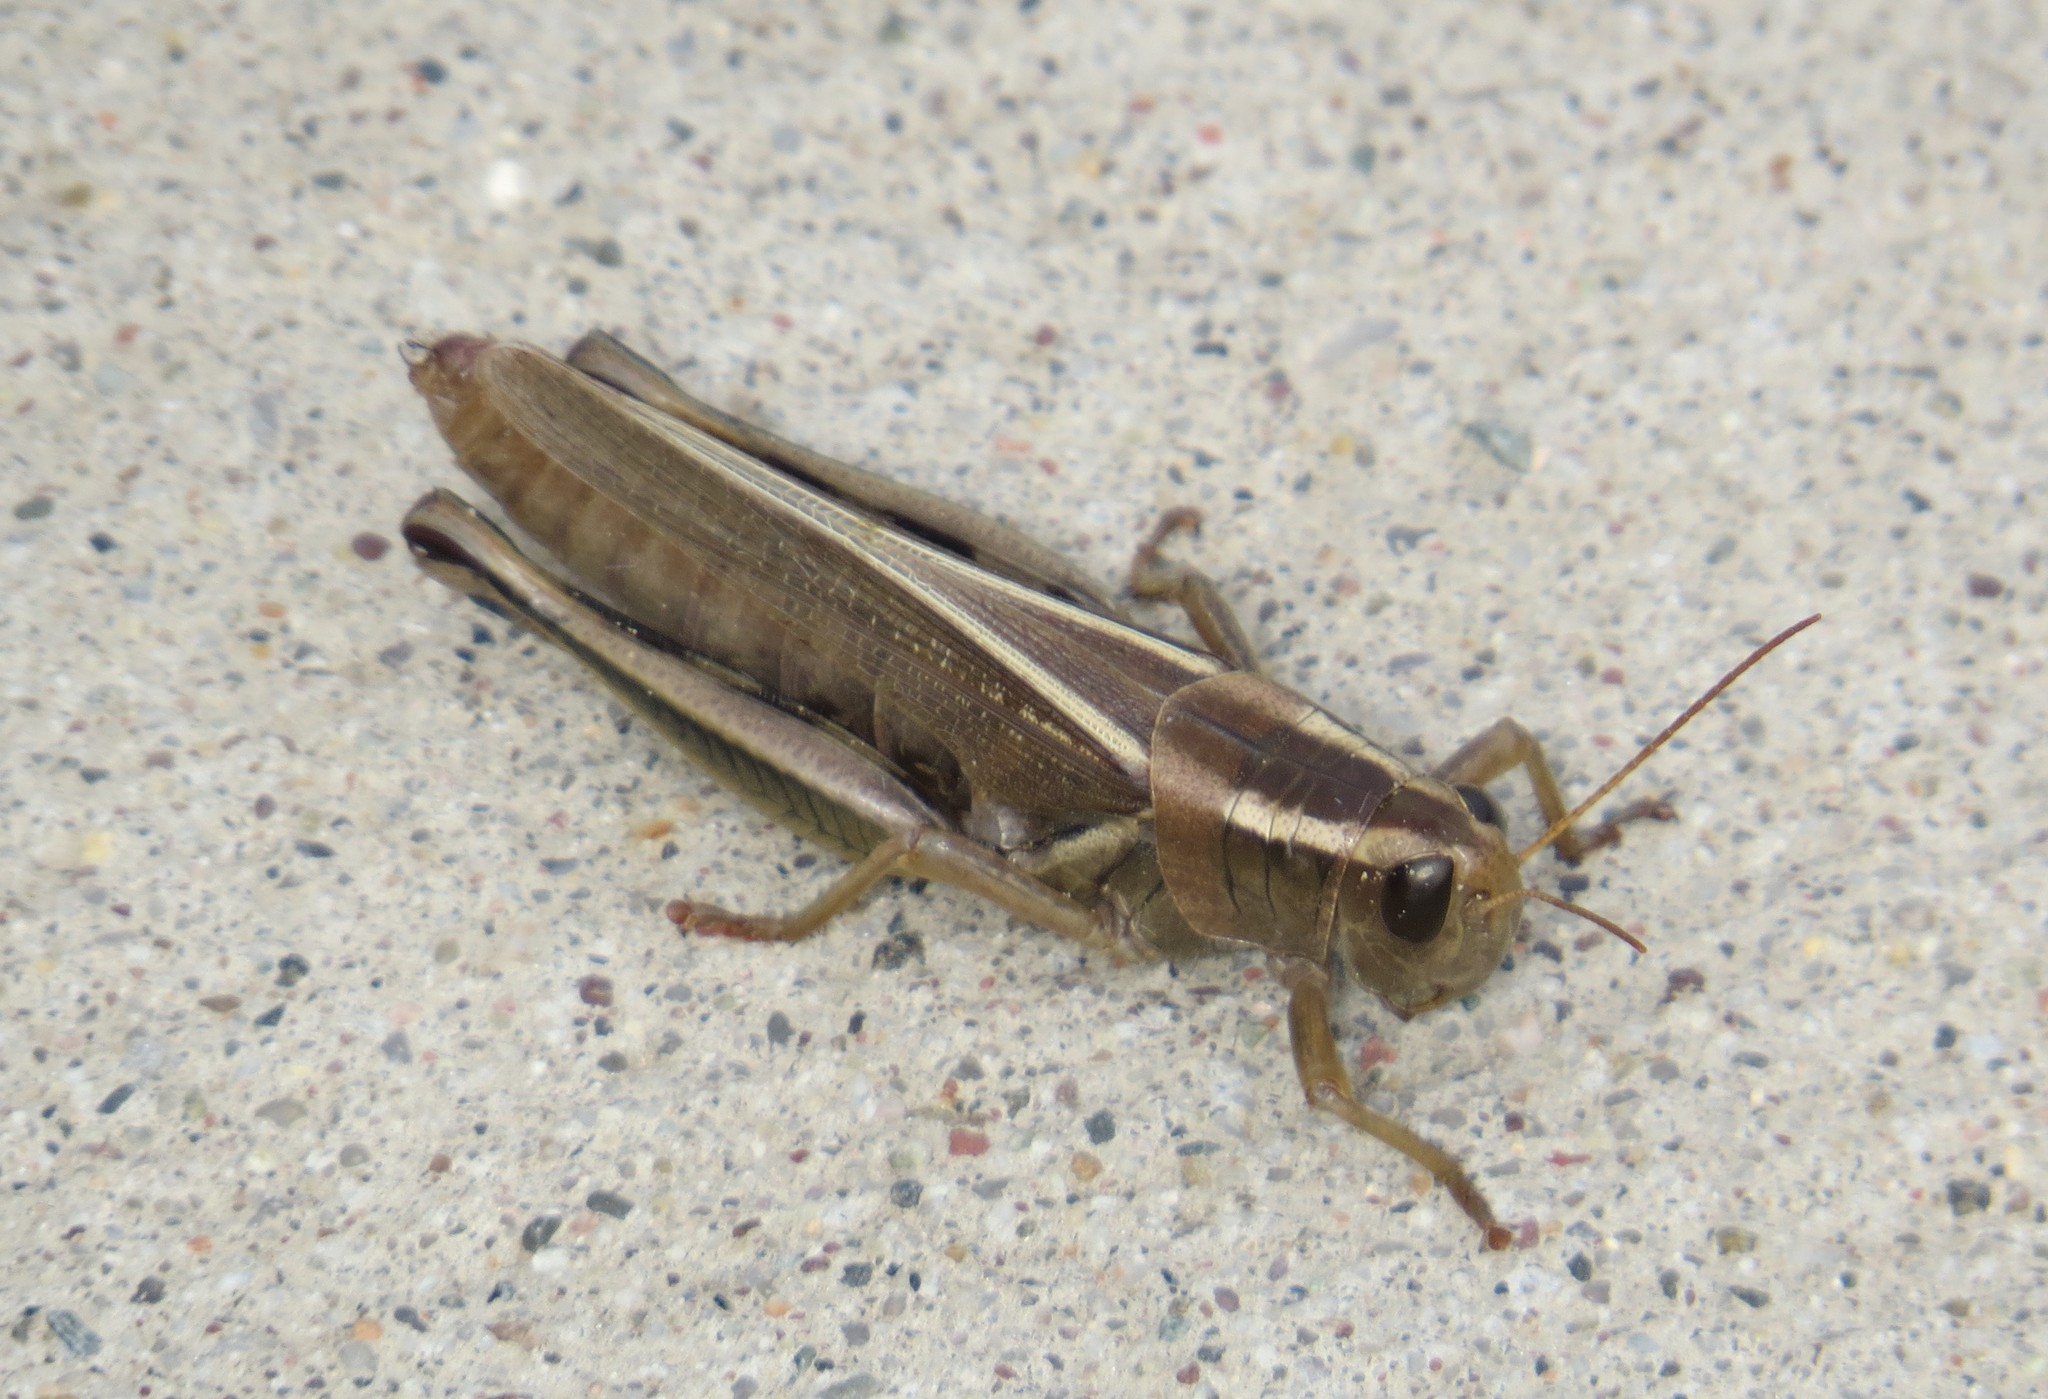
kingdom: Animalia
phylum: Arthropoda
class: Insecta
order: Orthoptera
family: Acrididae
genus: Melanoplus
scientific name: Melanoplus bivittatus
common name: Two-striped grasshopper
